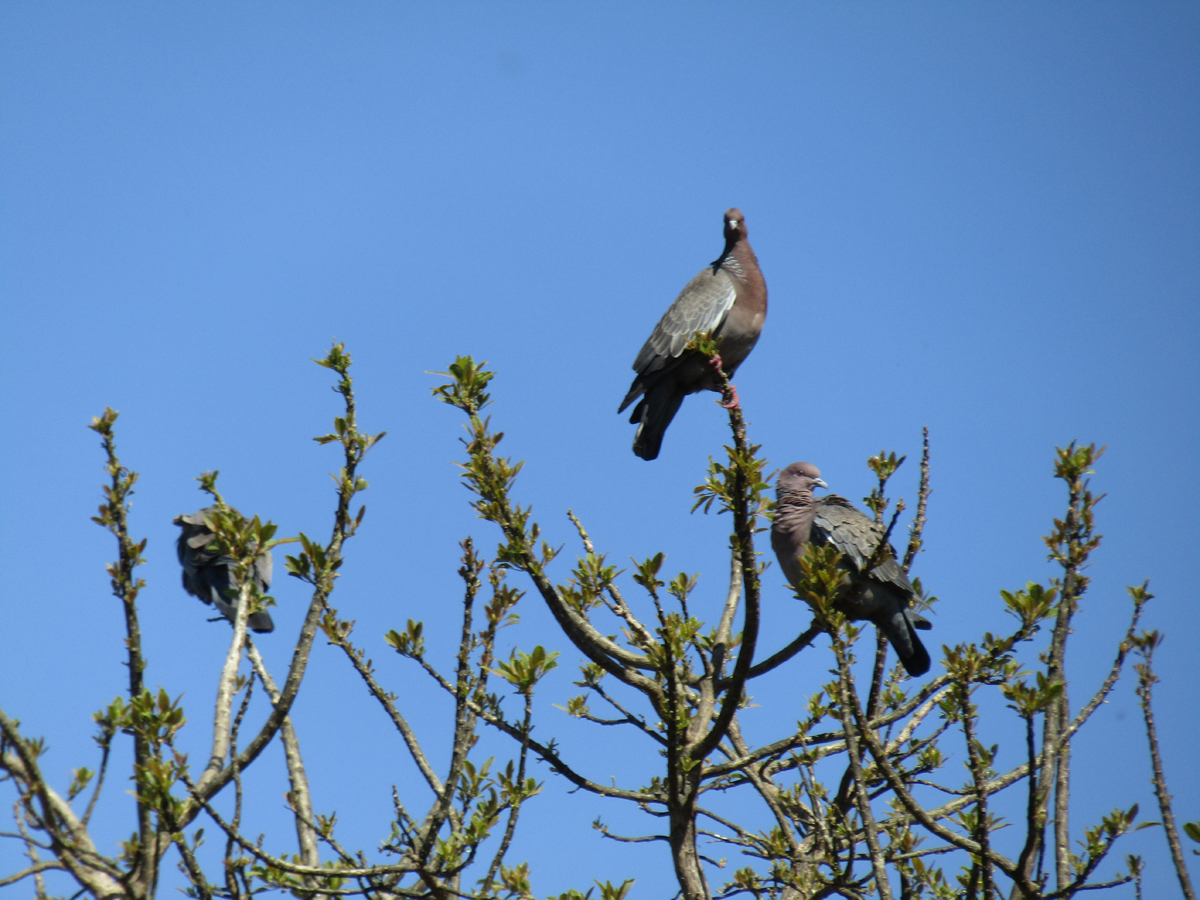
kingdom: Animalia
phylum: Chordata
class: Aves
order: Columbiformes
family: Columbidae
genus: Patagioenas
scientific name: Patagioenas picazuro
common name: Picazuro pigeon
